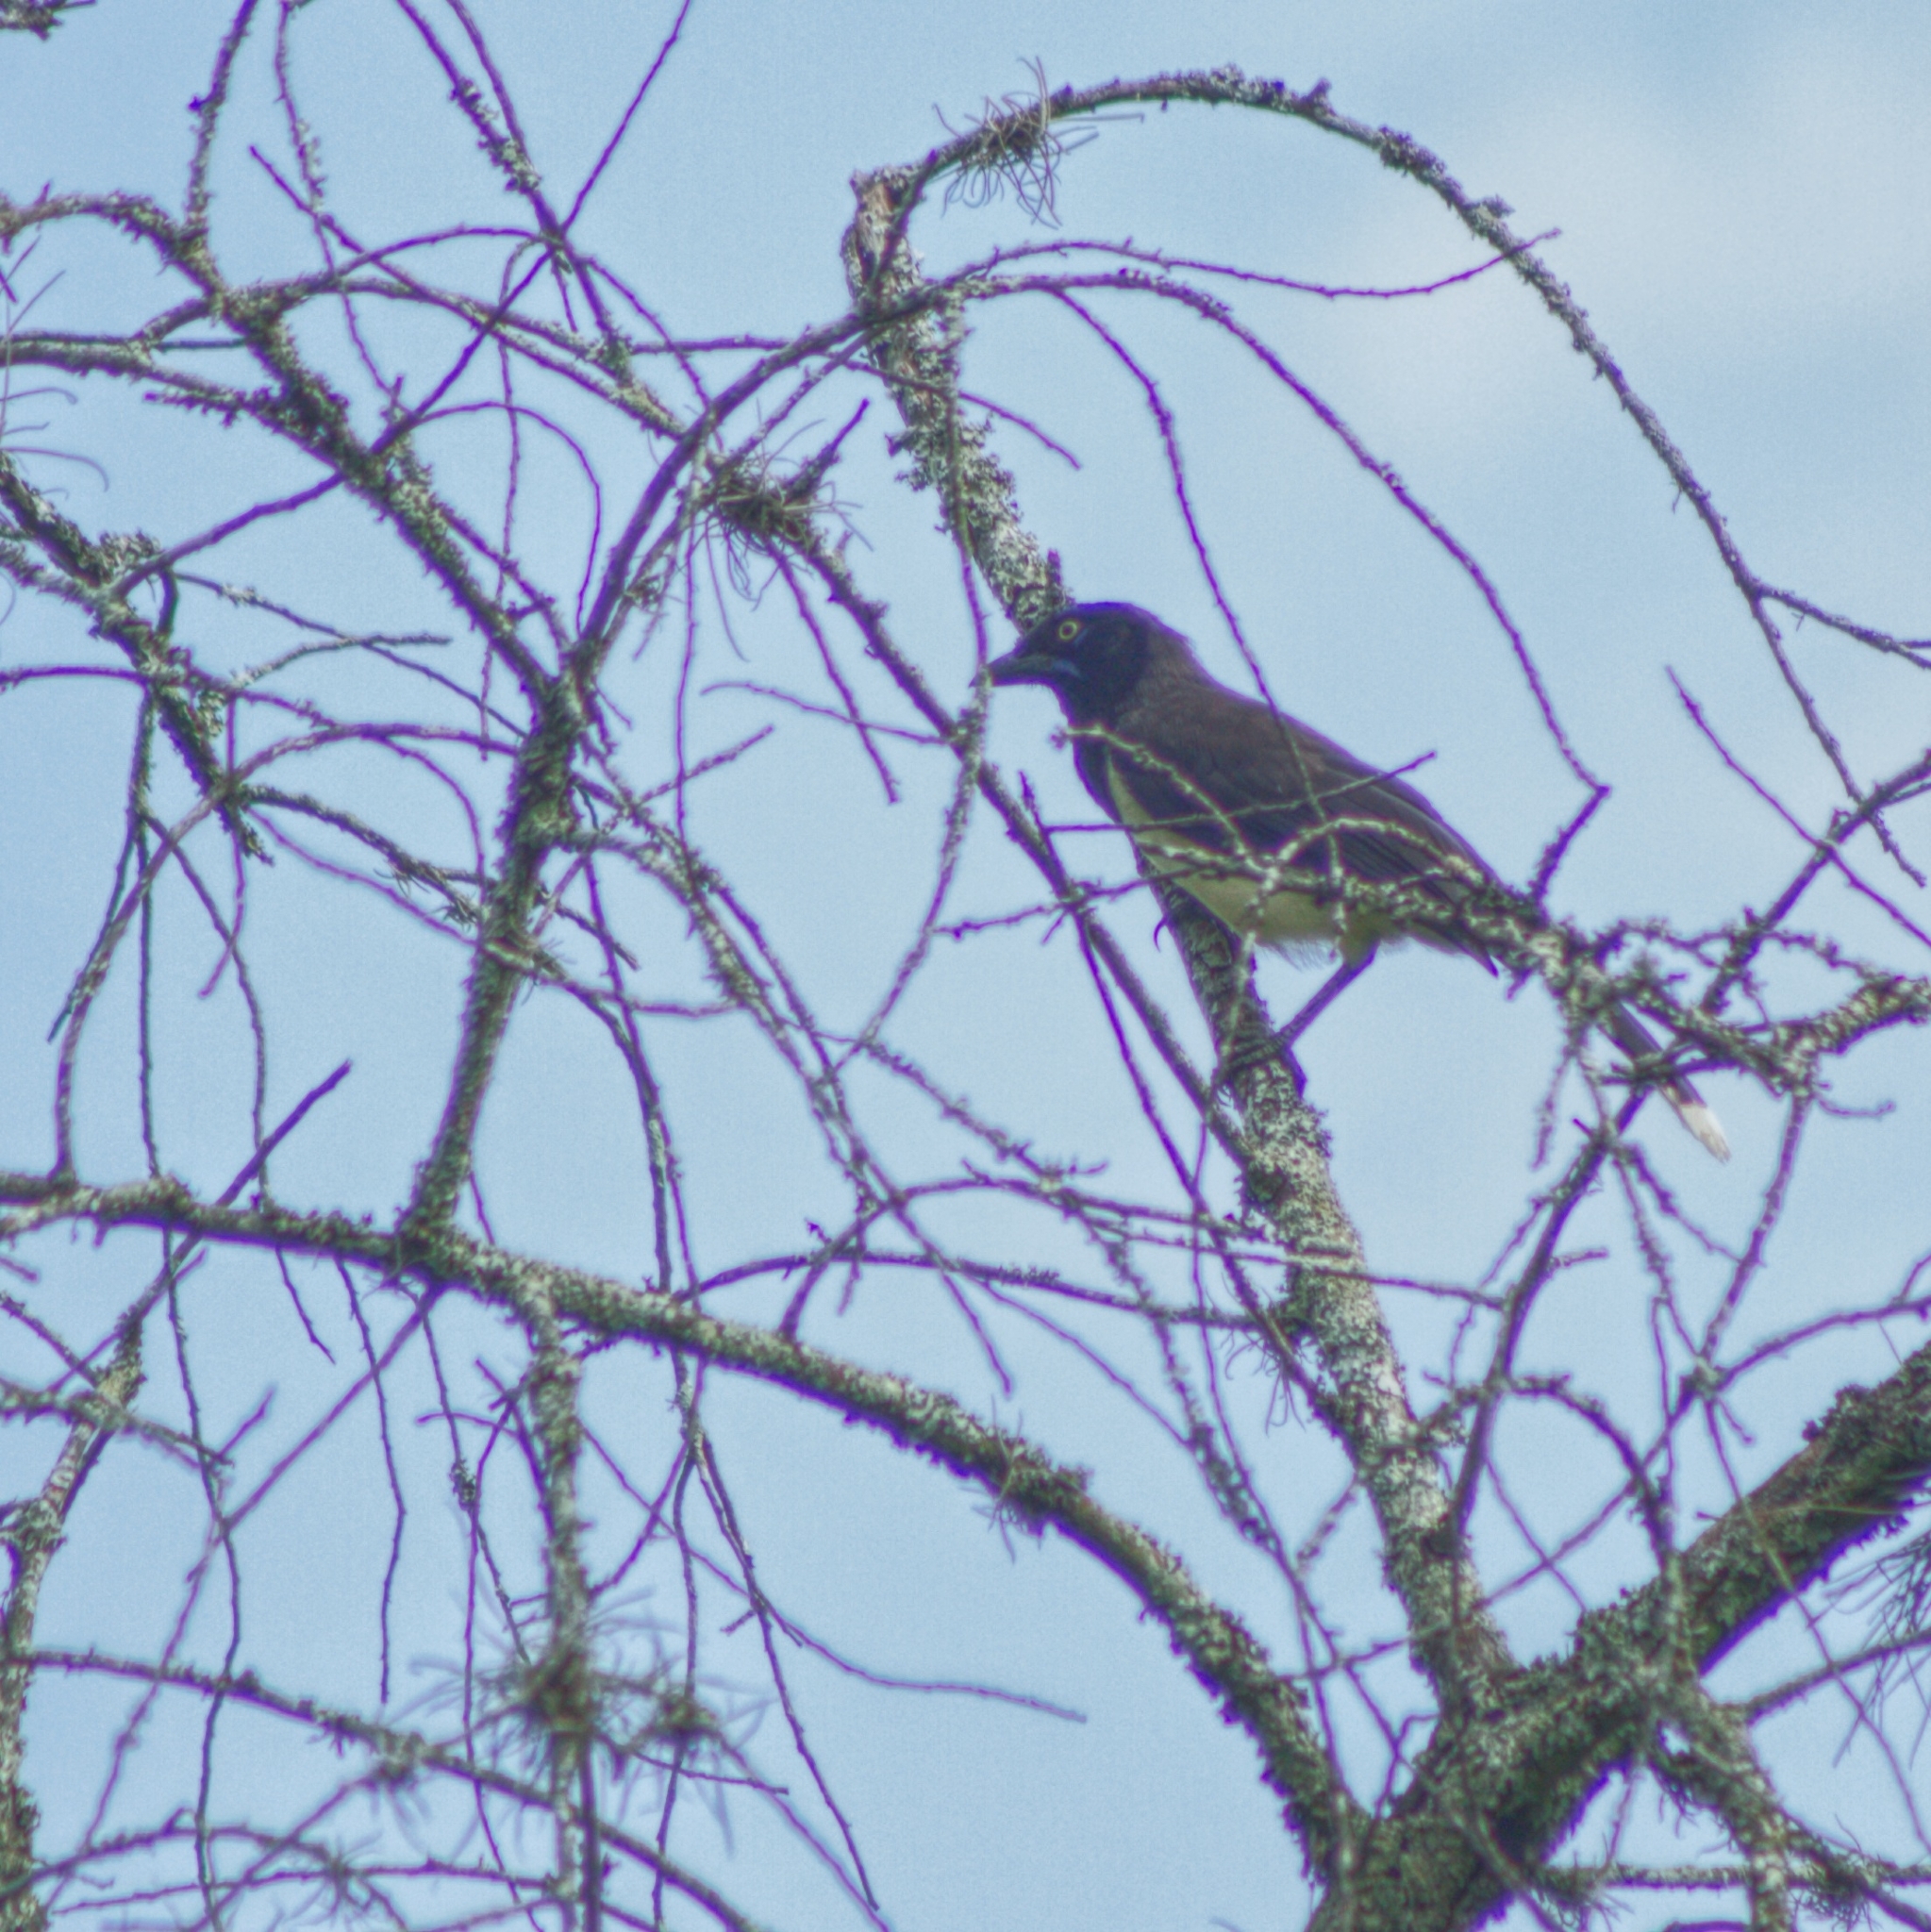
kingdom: Animalia
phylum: Chordata
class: Aves
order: Passeriformes
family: Corvidae
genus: Cyanocorax
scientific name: Cyanocorax affinis
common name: Black-chested jay
